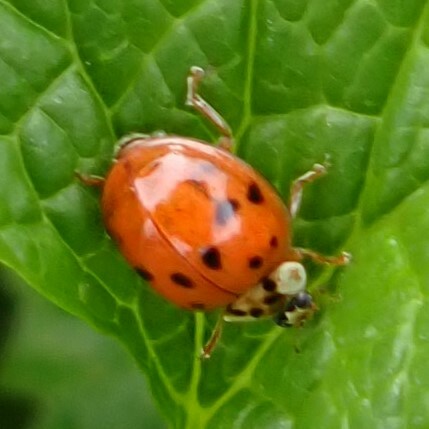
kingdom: Animalia
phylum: Arthropoda
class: Insecta
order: Coleoptera
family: Coccinellidae
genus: Harmonia
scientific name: Harmonia axyridis
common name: Harlequin ladybird
